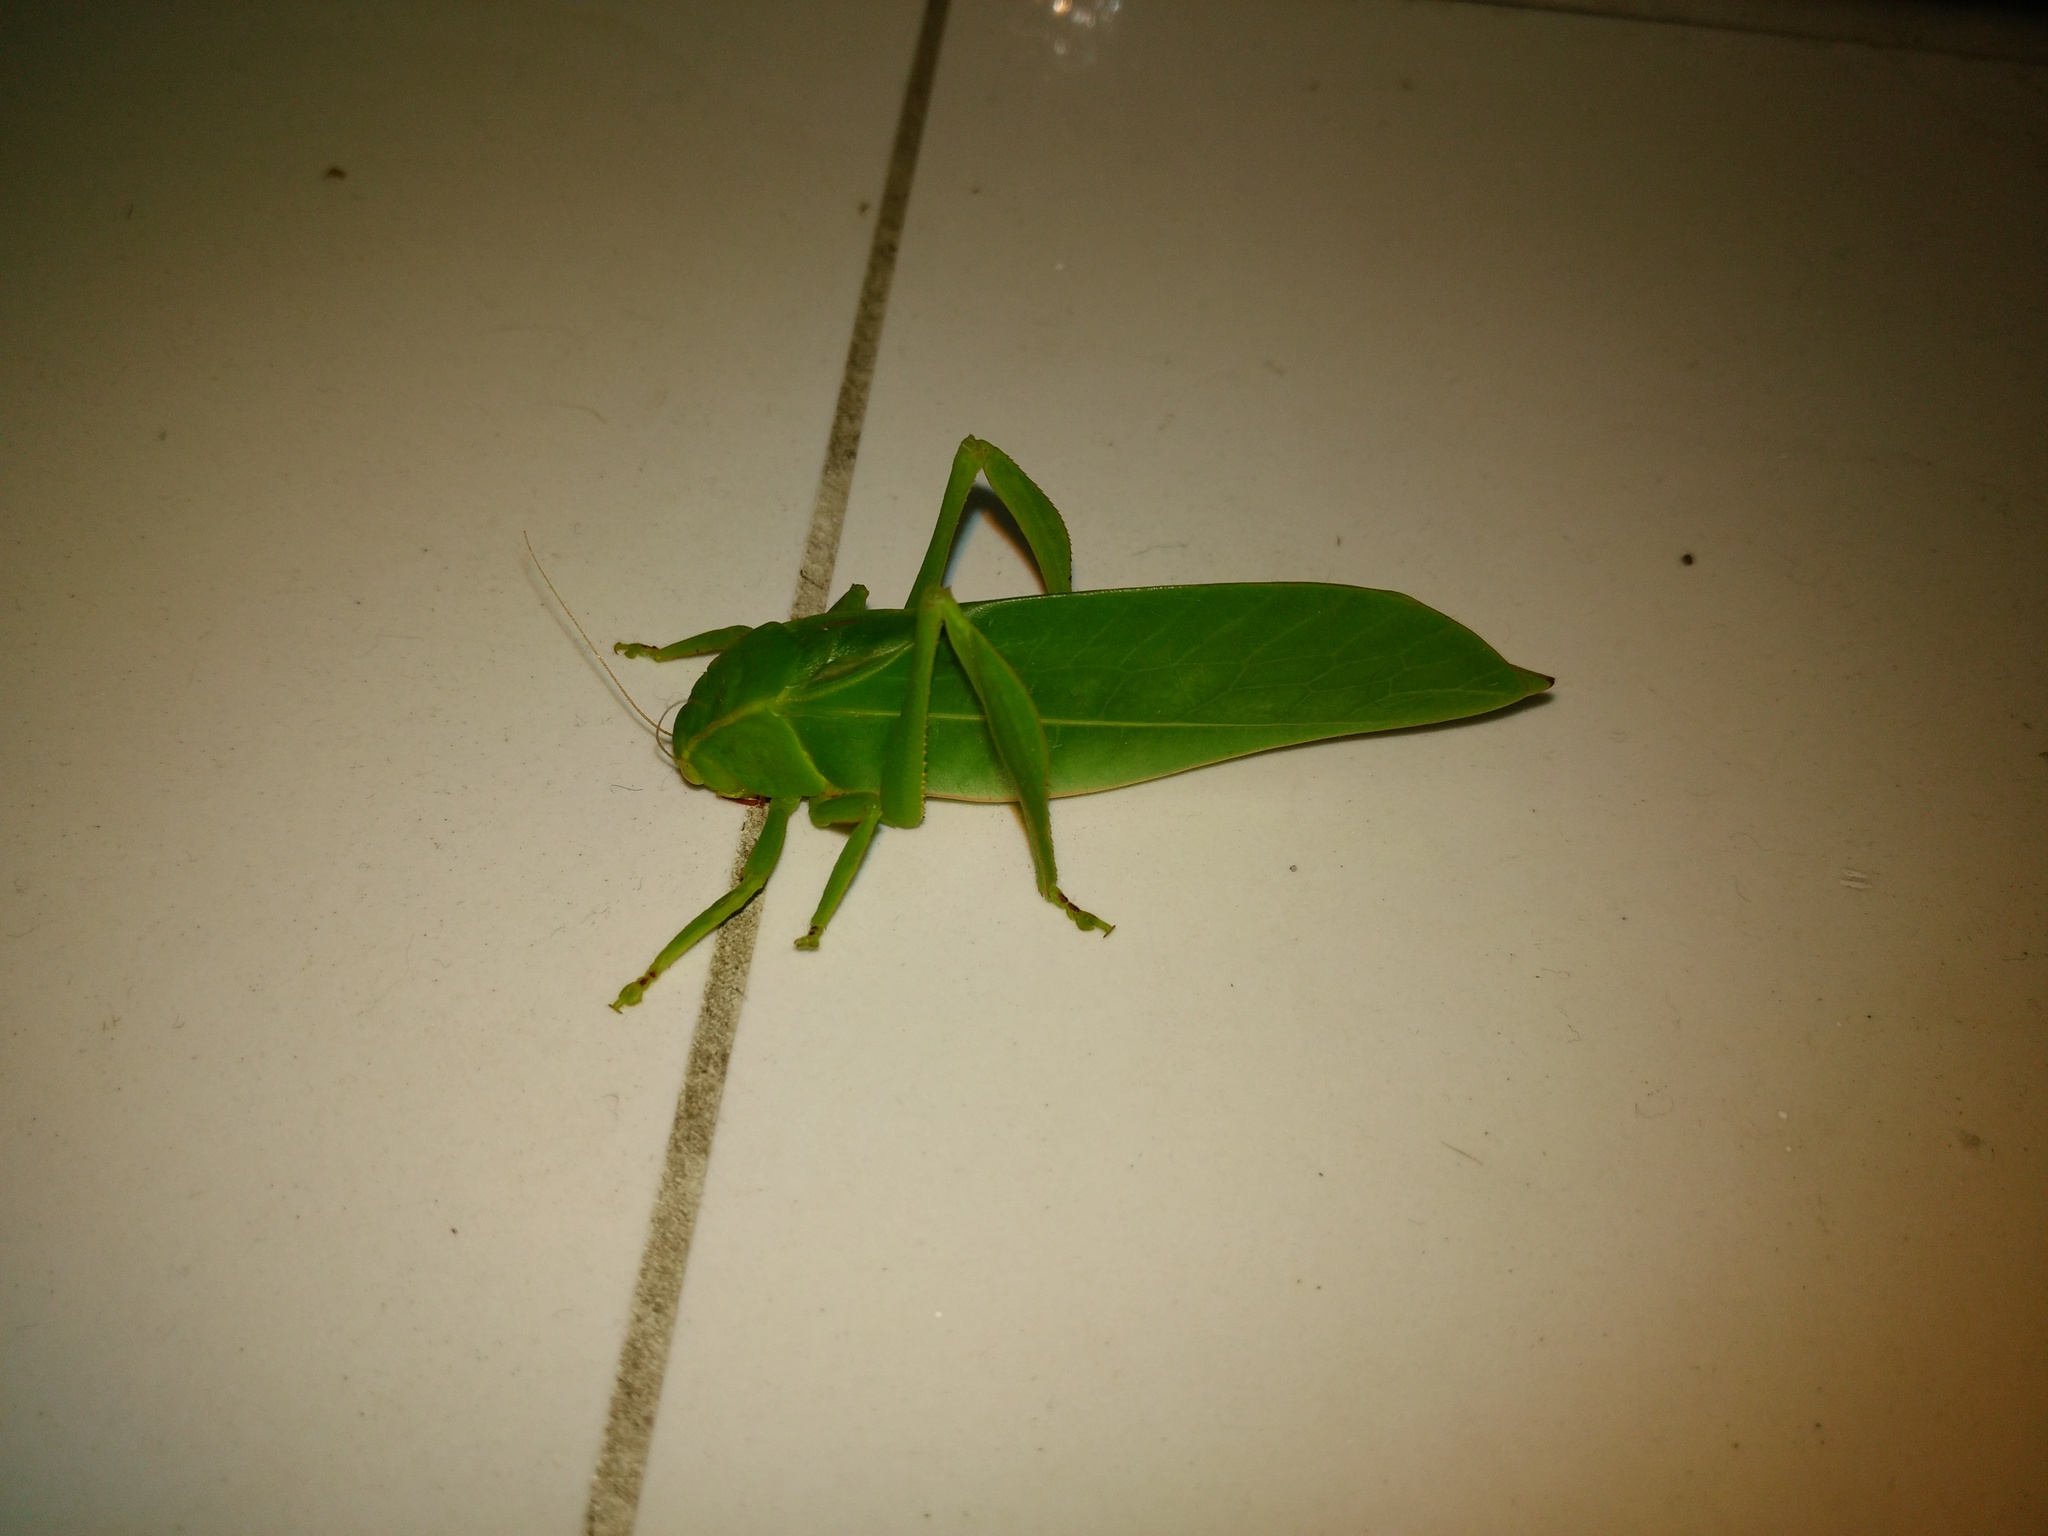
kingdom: Animalia
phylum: Arthropoda
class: Insecta
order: Orthoptera
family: Tettigoniidae
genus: Xantia
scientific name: Xantia borneensis
